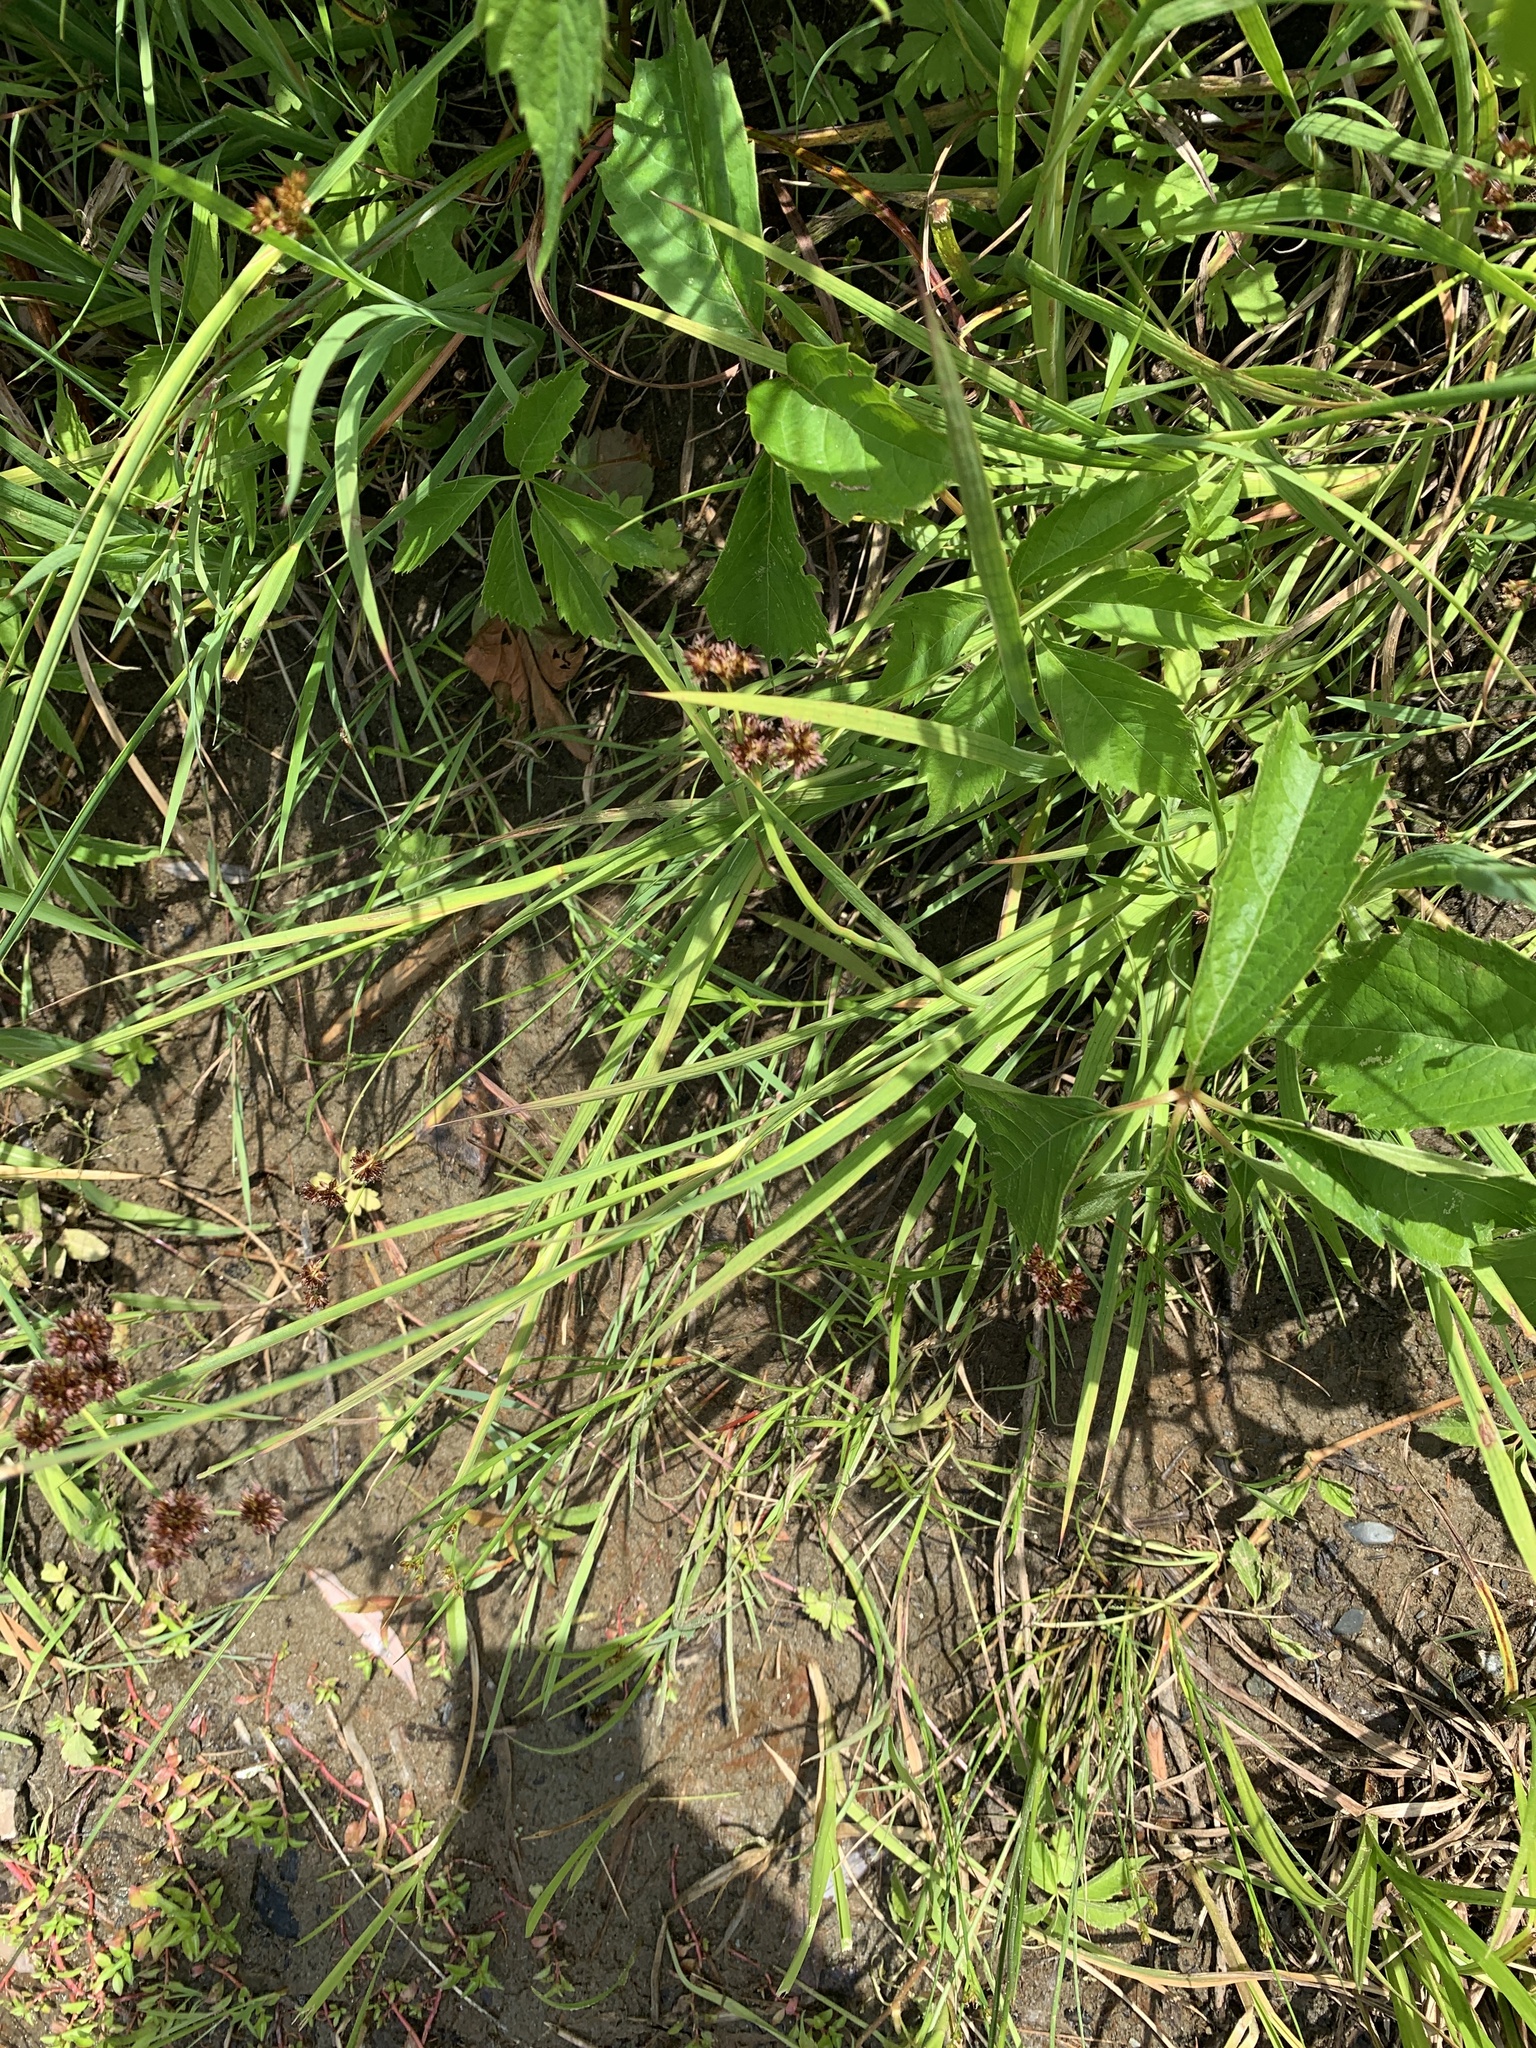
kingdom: Plantae
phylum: Tracheophyta
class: Liliopsida
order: Poales
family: Juncaceae
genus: Juncus
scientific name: Juncus ensifolius
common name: Sword-leaved rush
